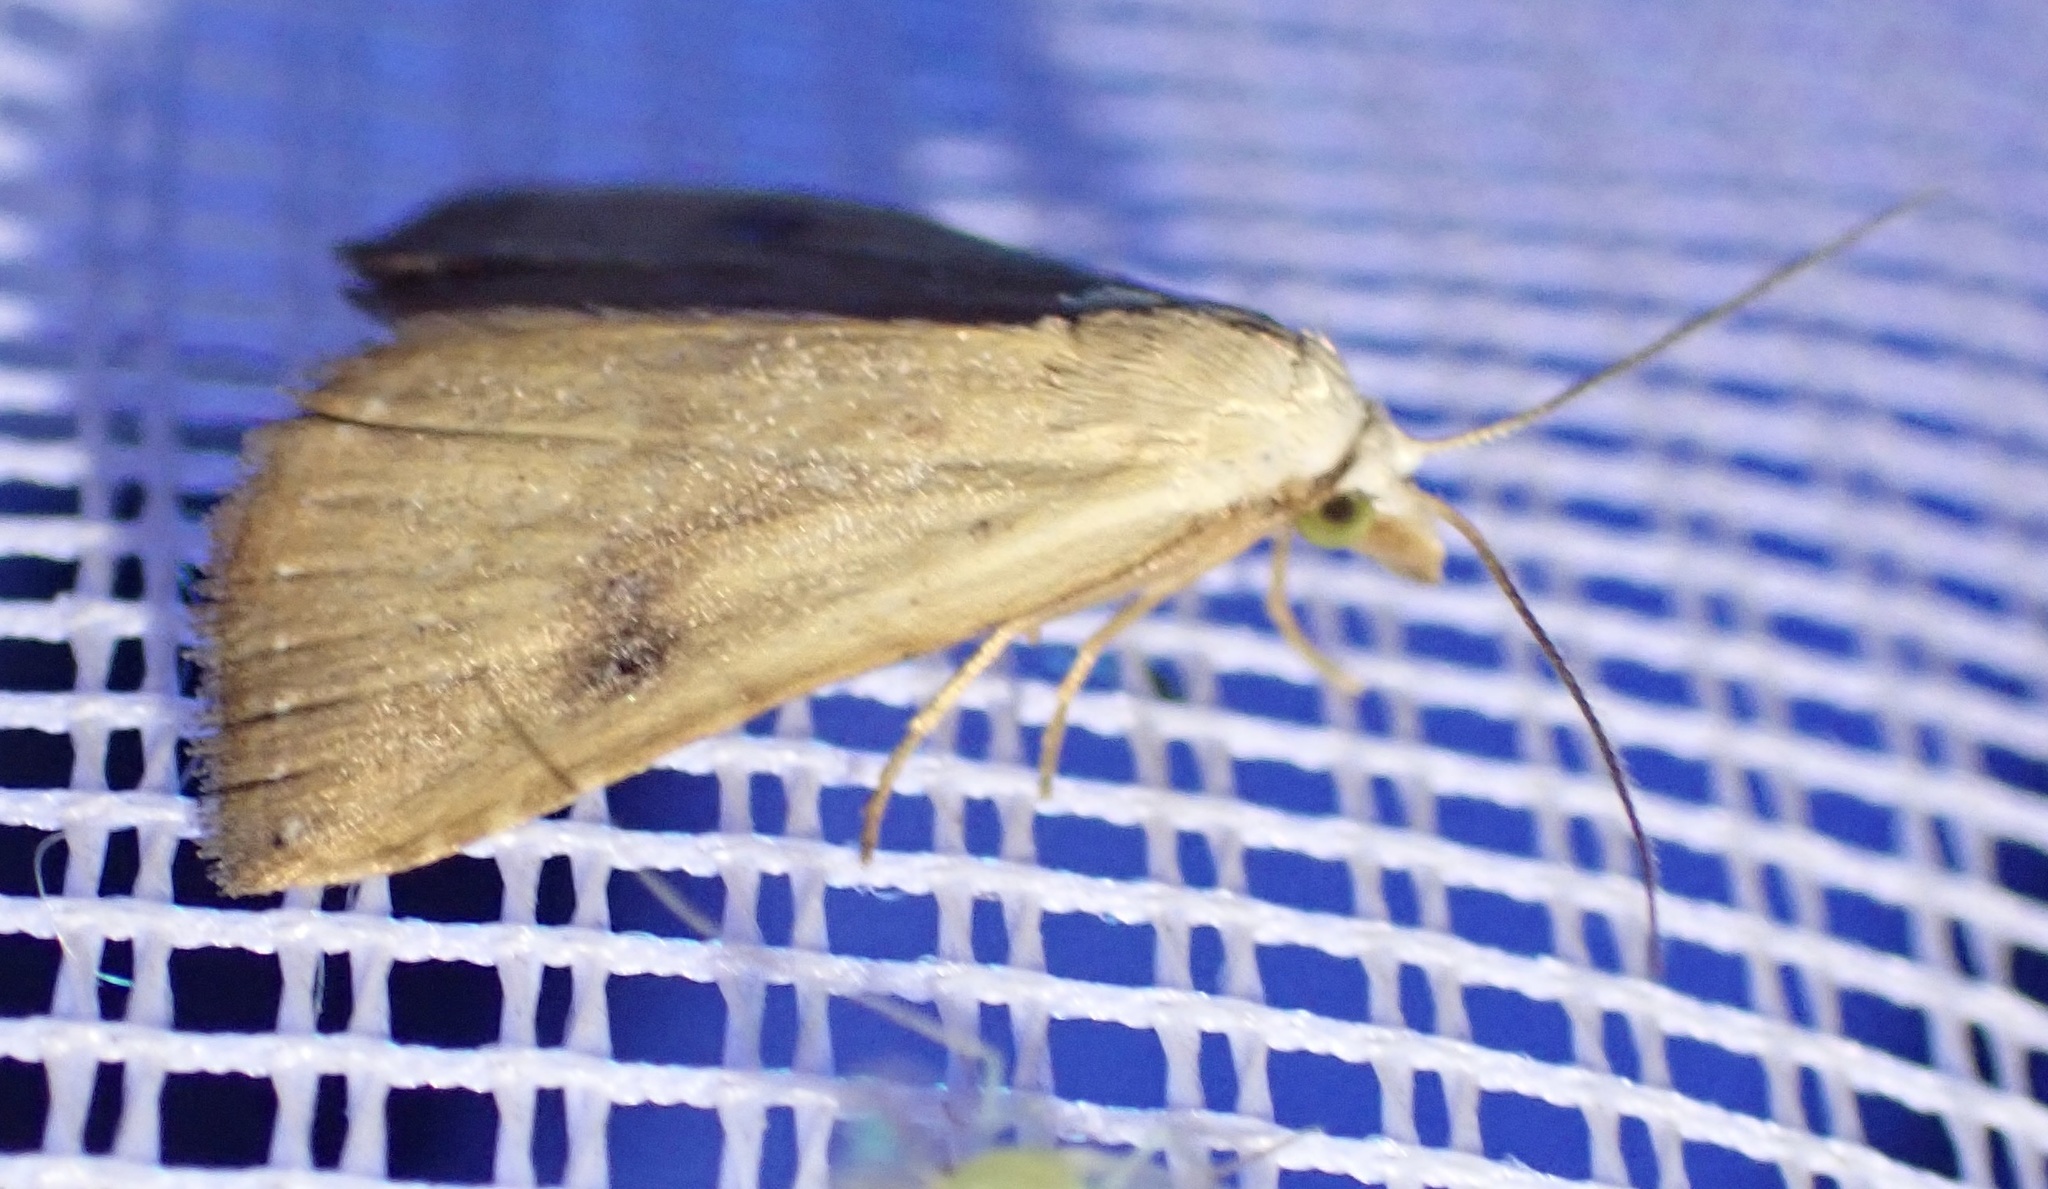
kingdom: Animalia
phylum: Arthropoda
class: Insecta
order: Lepidoptera
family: Erebidae
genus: Rivula
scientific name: Rivula sericealis
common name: Straw dot
